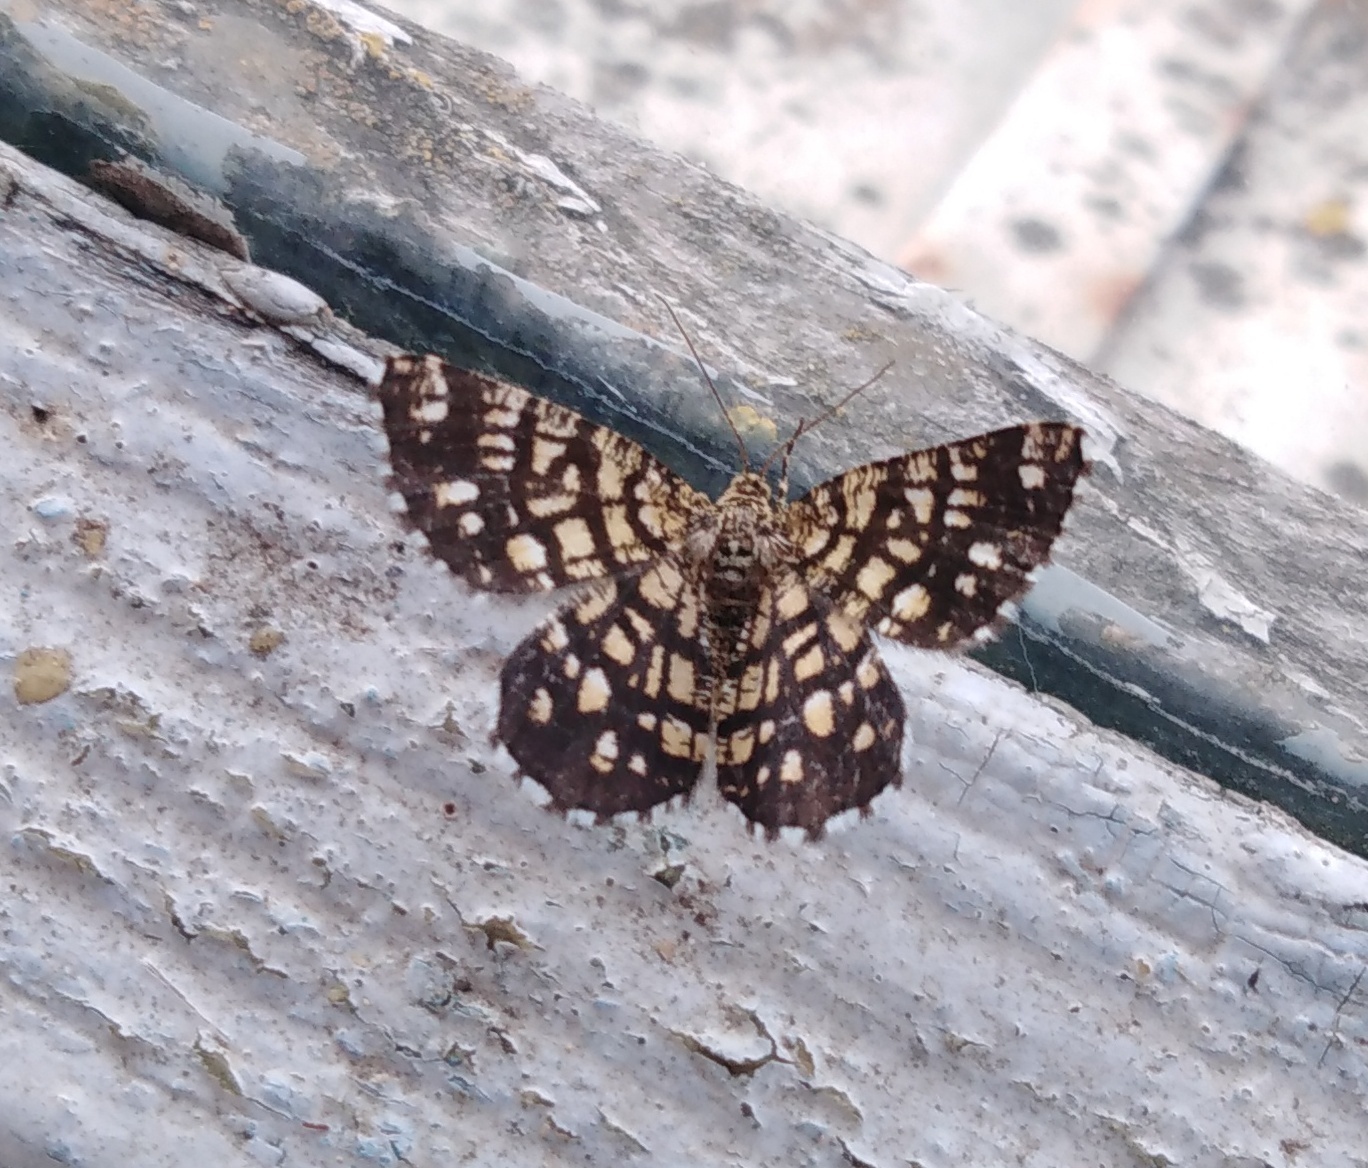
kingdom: Animalia
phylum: Arthropoda
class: Insecta
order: Lepidoptera
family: Geometridae
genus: Chiasmia
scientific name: Chiasmia clathrata
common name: Latticed heath
